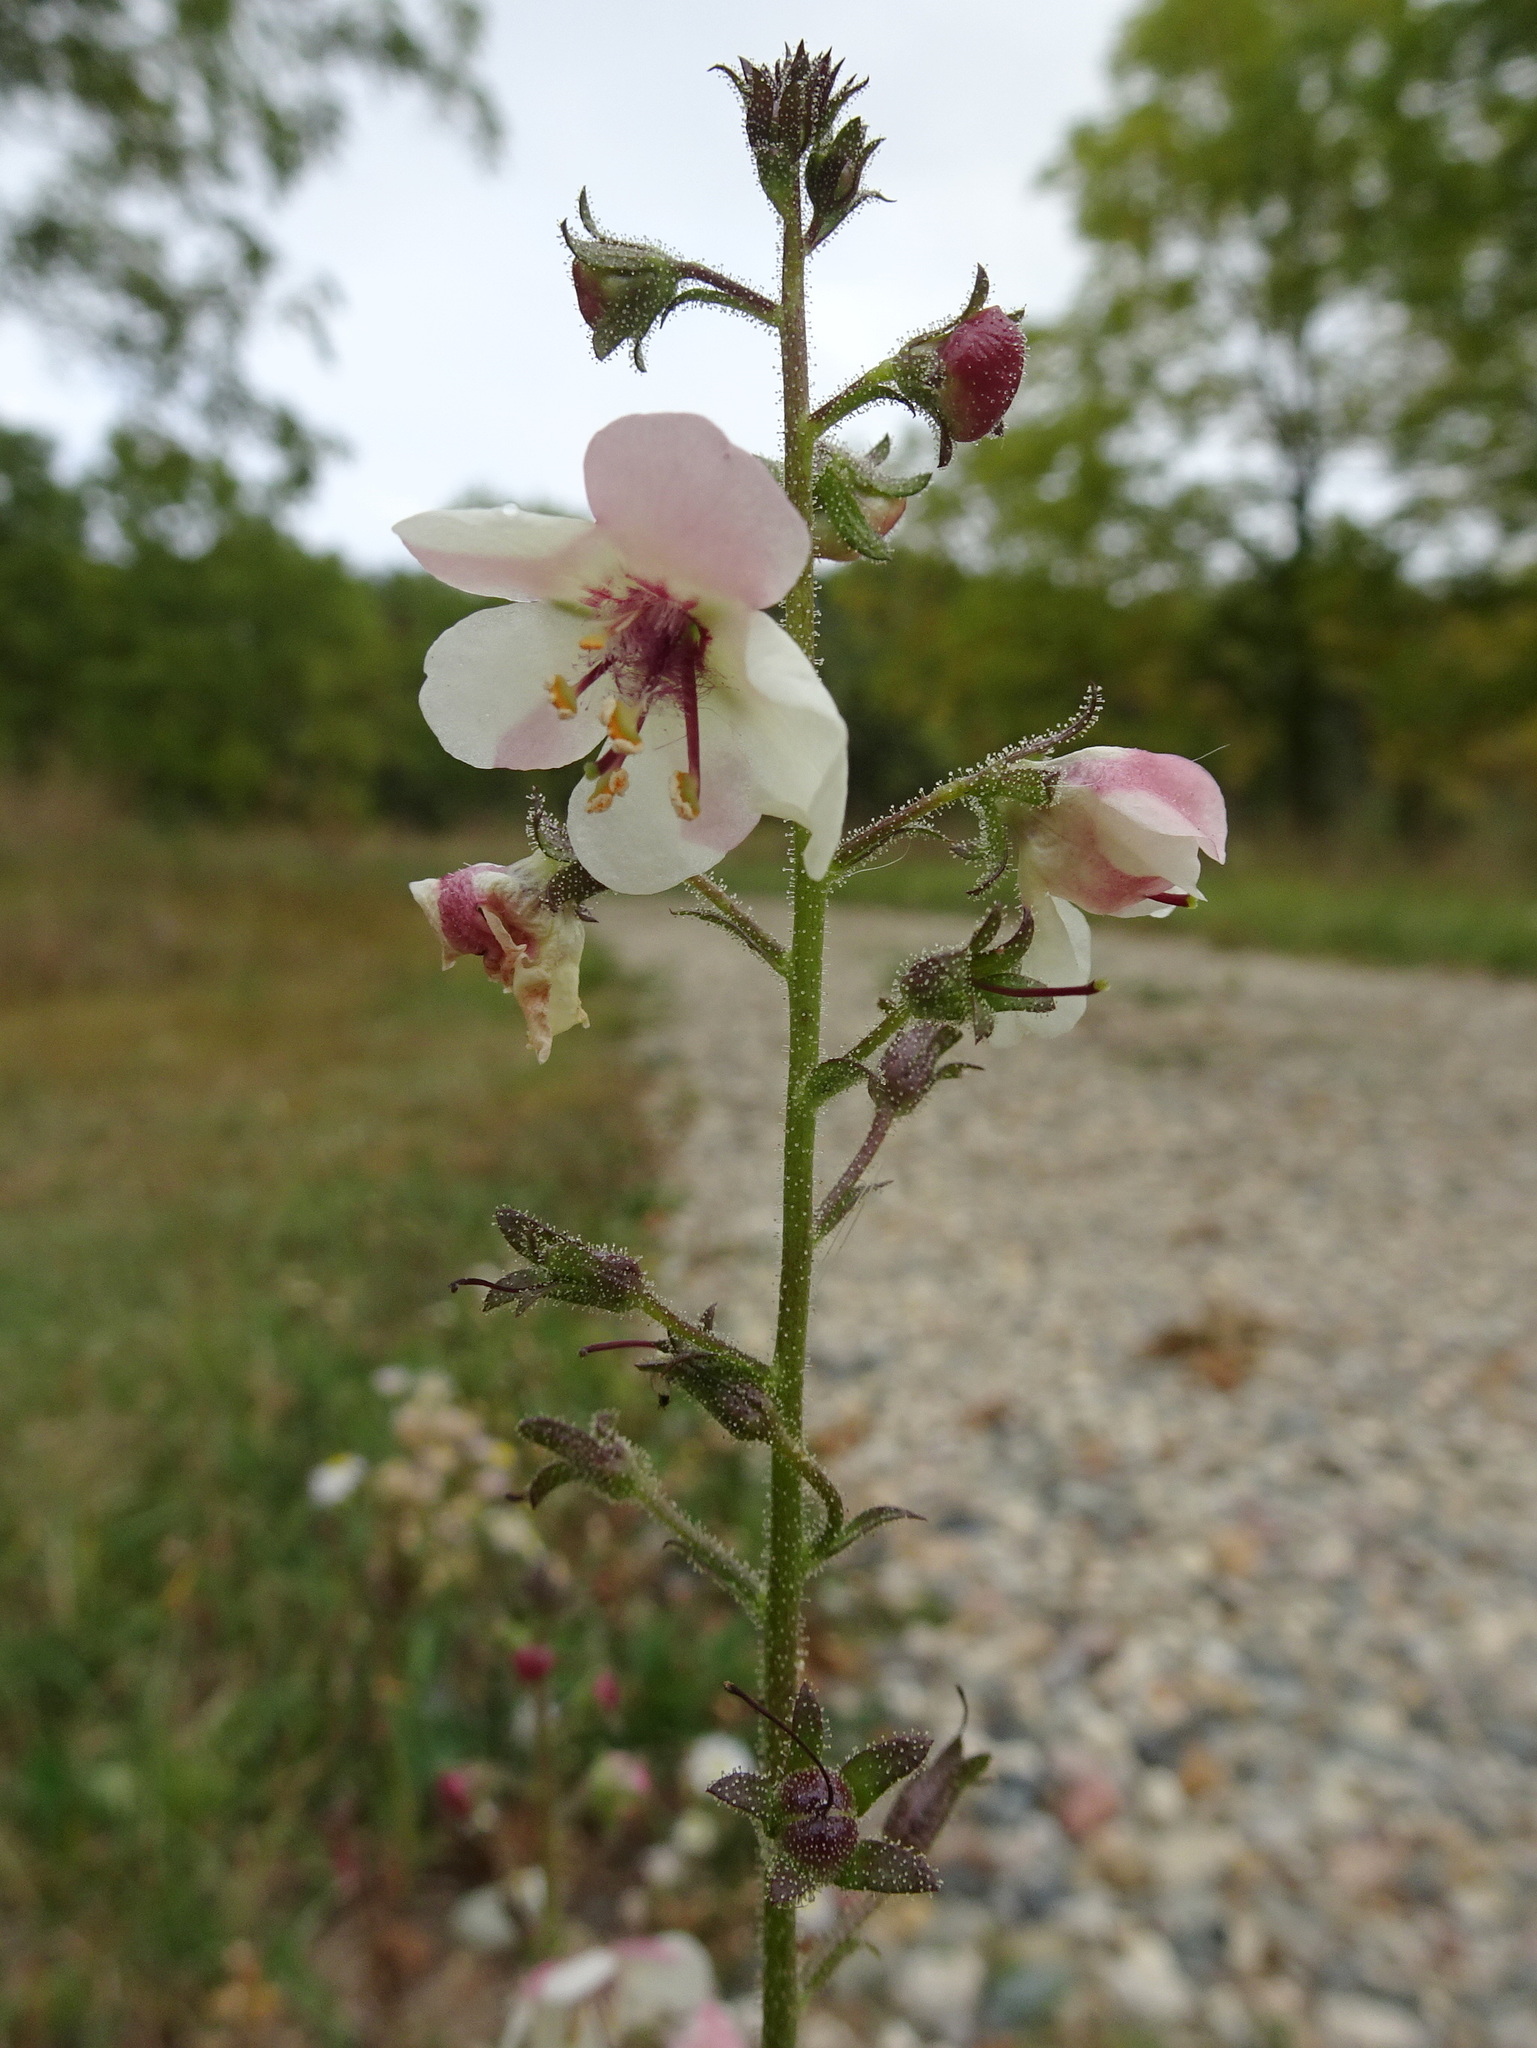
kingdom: Plantae
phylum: Tracheophyta
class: Magnoliopsida
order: Lamiales
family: Scrophulariaceae
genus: Verbascum
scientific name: Verbascum blattaria
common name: Moth mullein
